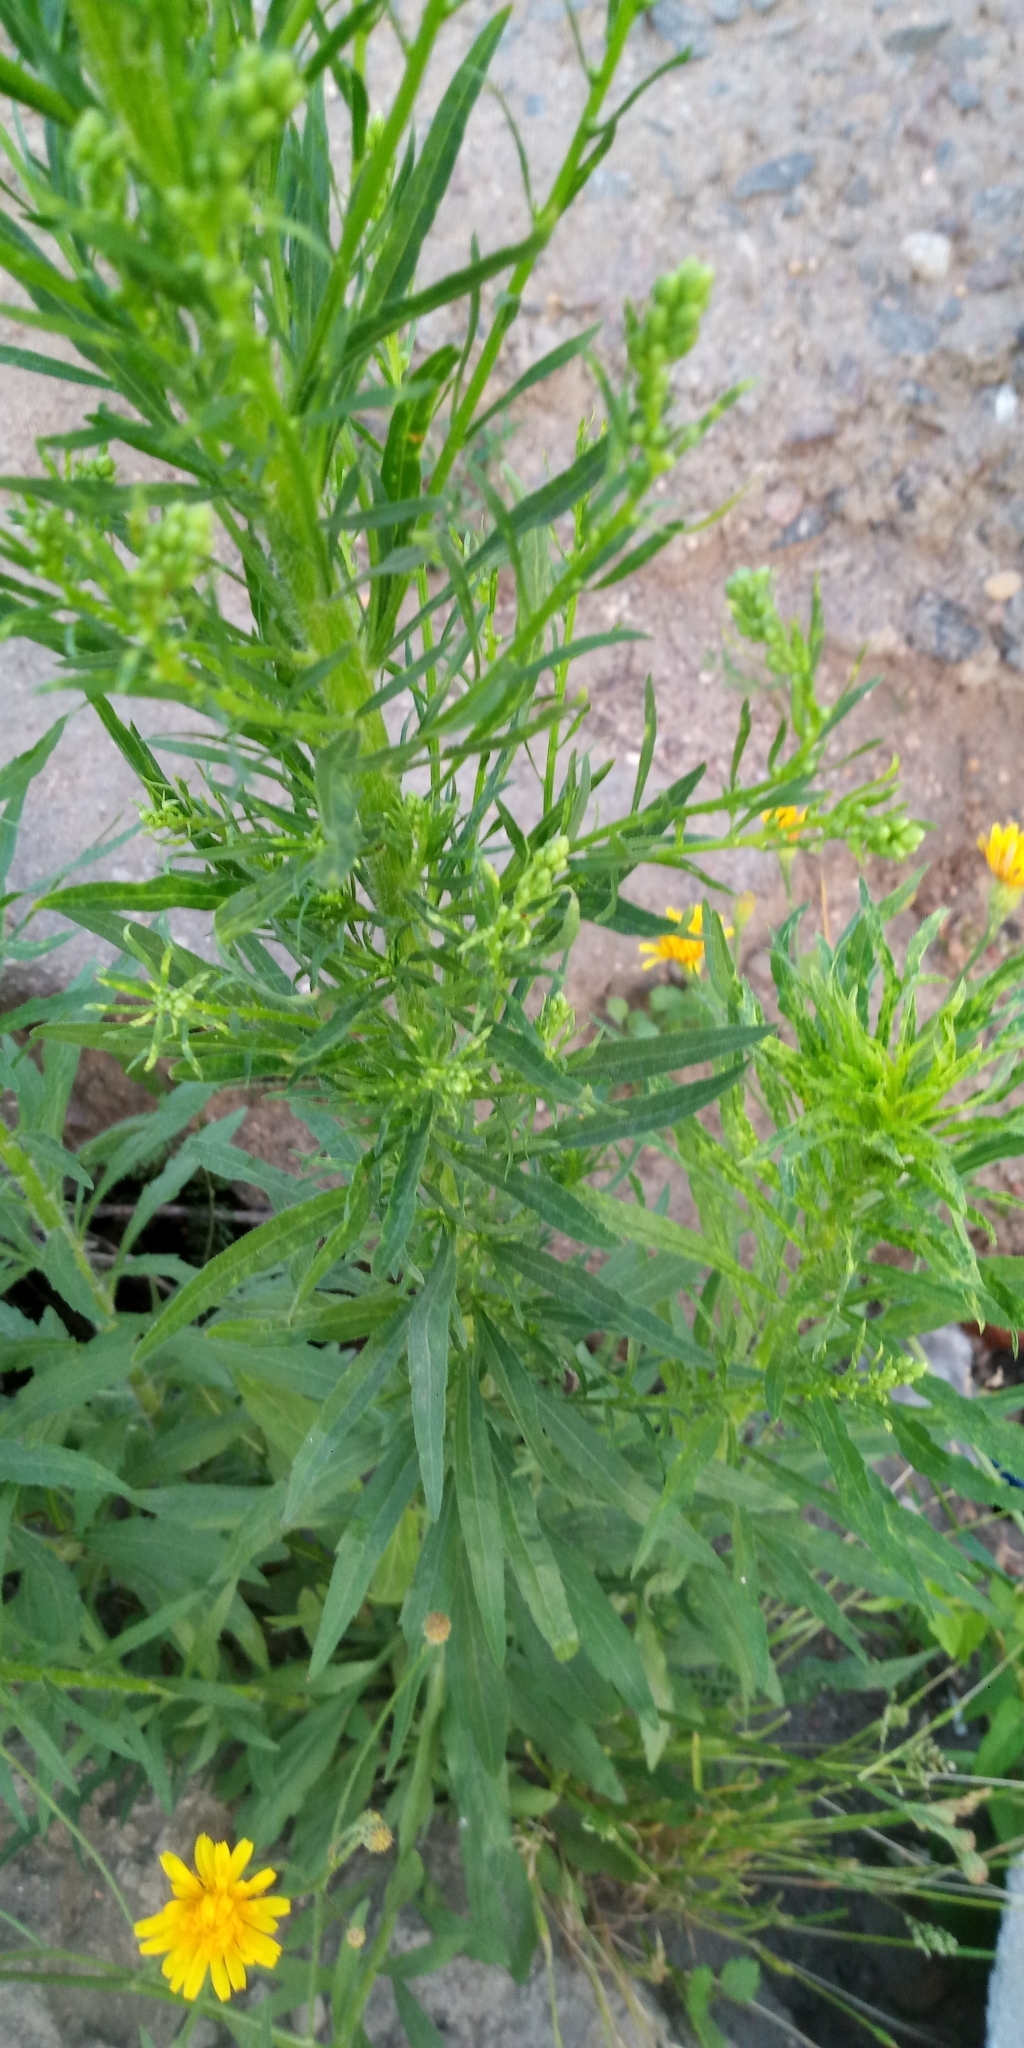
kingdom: Plantae
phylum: Tracheophyta
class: Magnoliopsida
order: Asterales
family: Asteraceae
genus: Erigeron
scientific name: Erigeron canadensis
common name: Canadian fleabane
